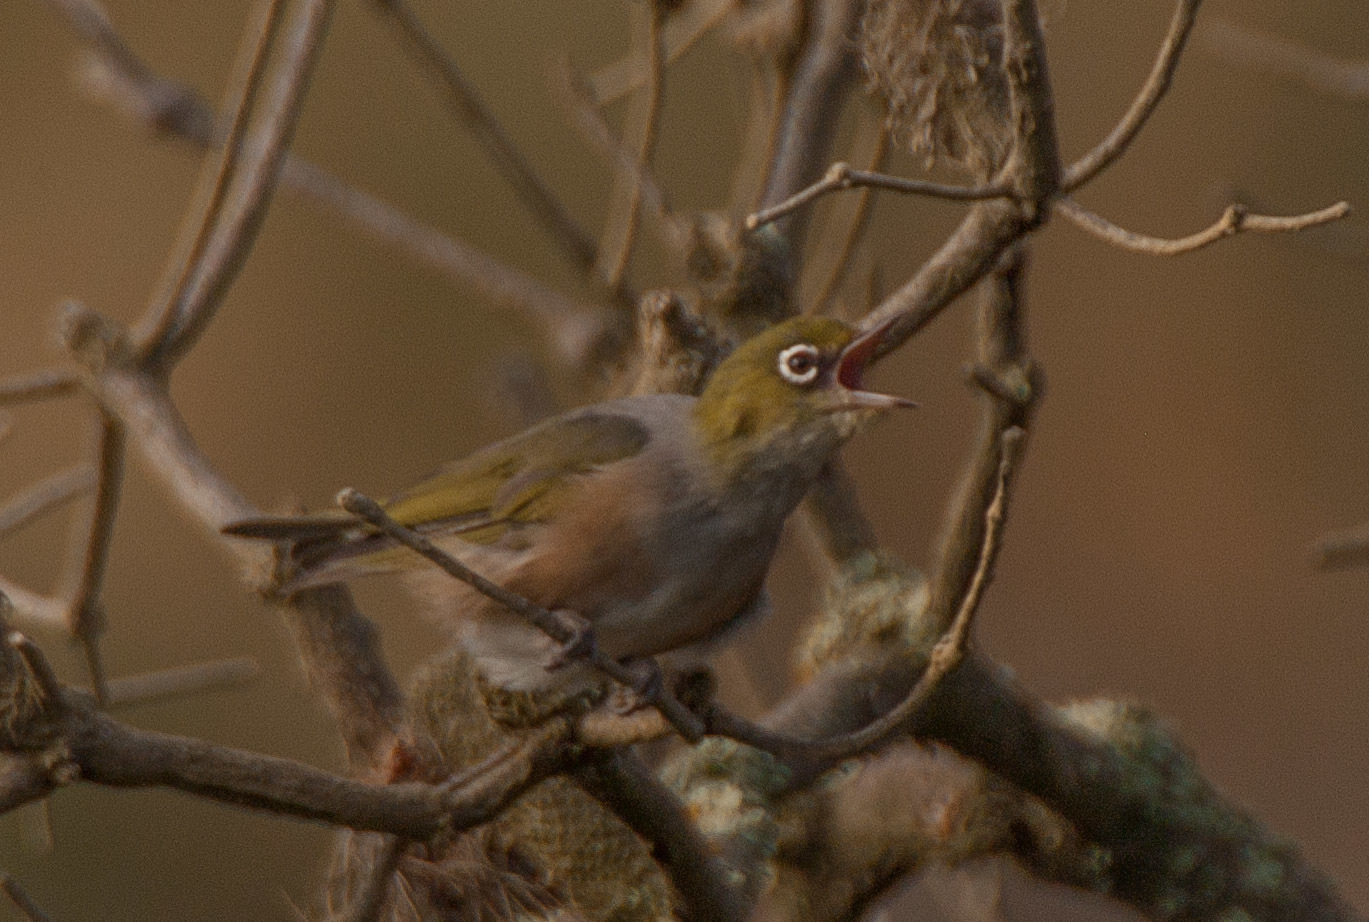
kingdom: Animalia
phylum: Chordata
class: Aves
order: Passeriformes
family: Zosteropidae
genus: Zosterops
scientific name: Zosterops lateralis
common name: Silvereye
